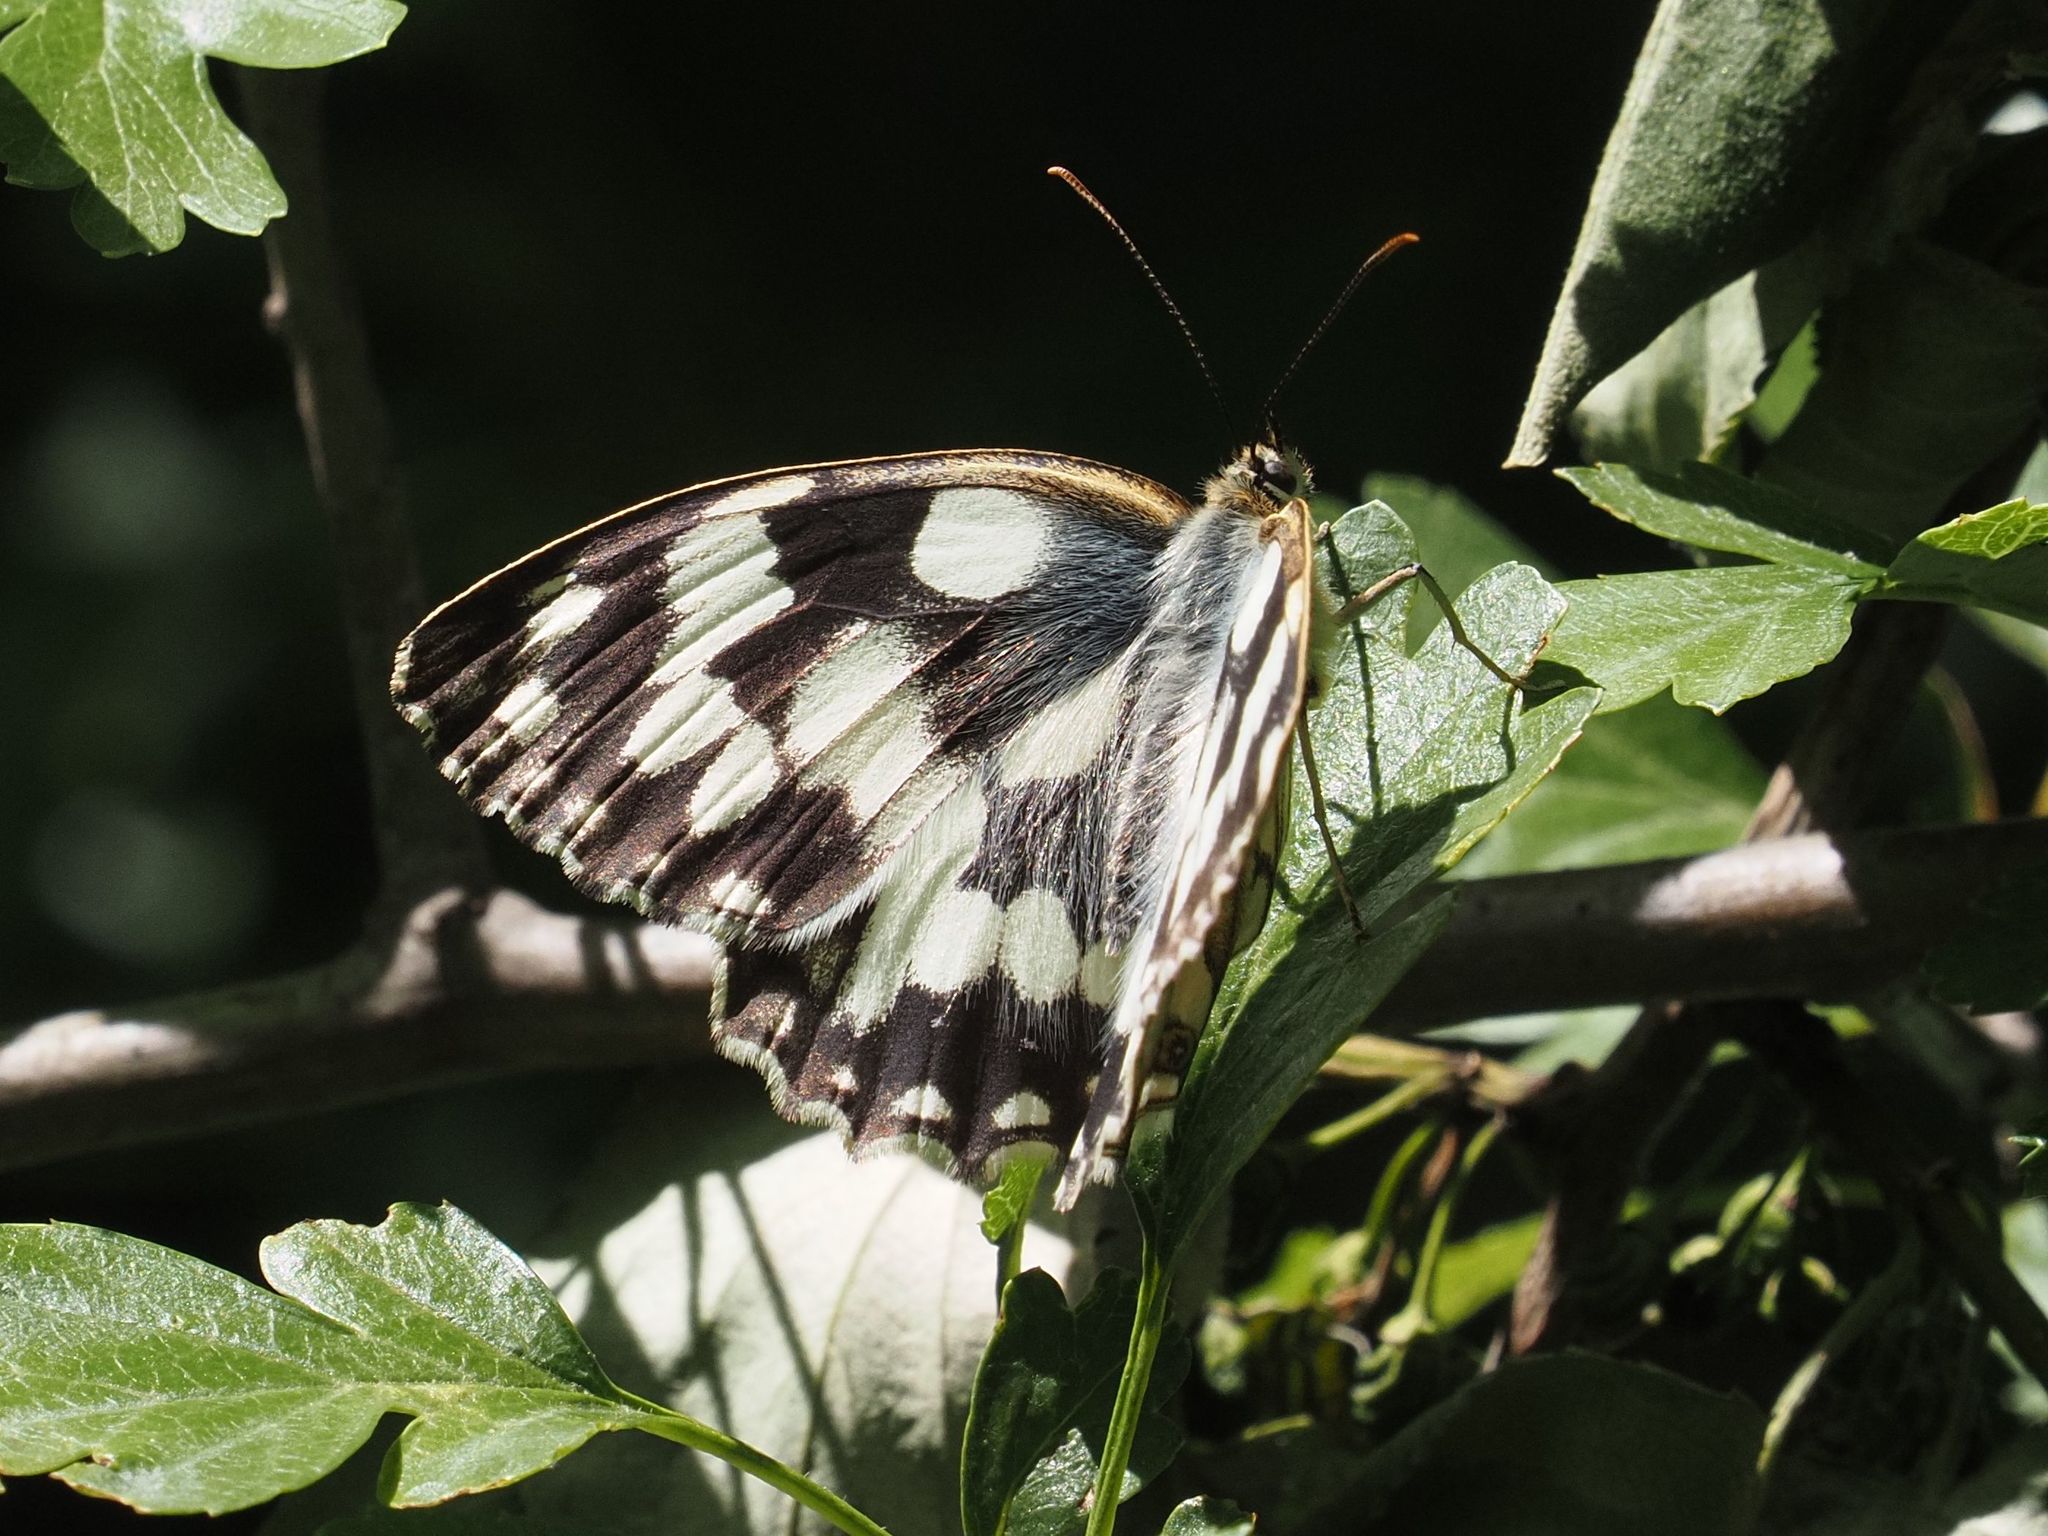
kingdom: Animalia
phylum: Arthropoda
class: Insecta
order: Lepidoptera
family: Nymphalidae
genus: Melanargia
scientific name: Melanargia galathea
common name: Marbled white
